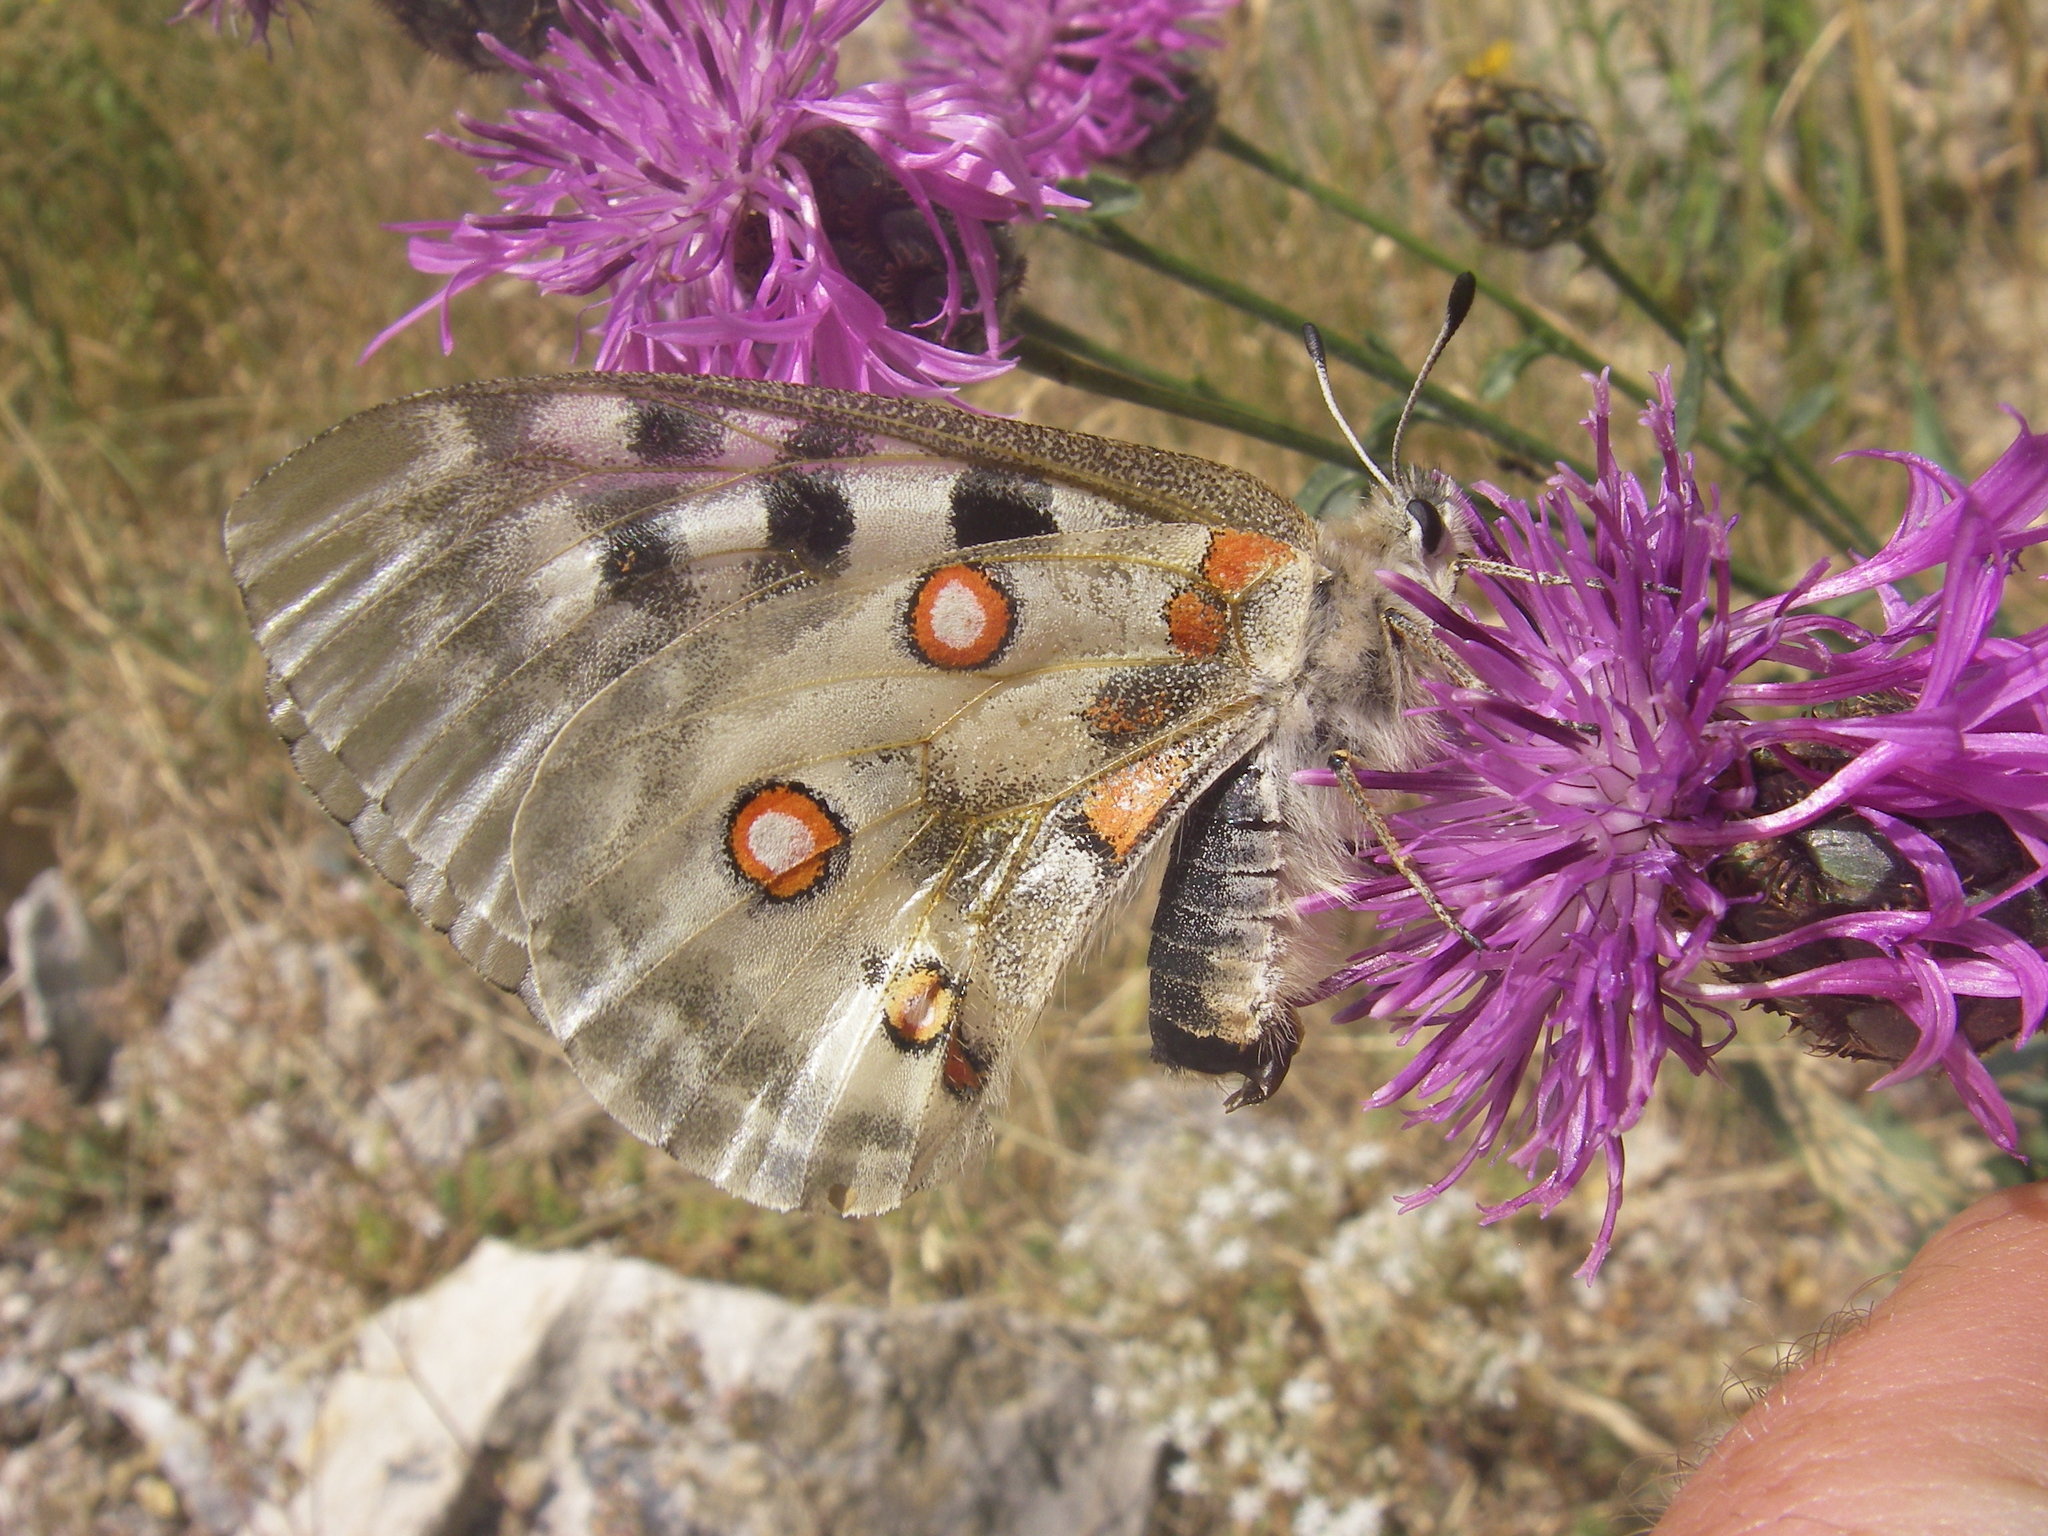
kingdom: Animalia
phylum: Arthropoda
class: Insecta
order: Lepidoptera
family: Papilionidae
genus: Parnassius
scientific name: Parnassius apollo
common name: Apollo
